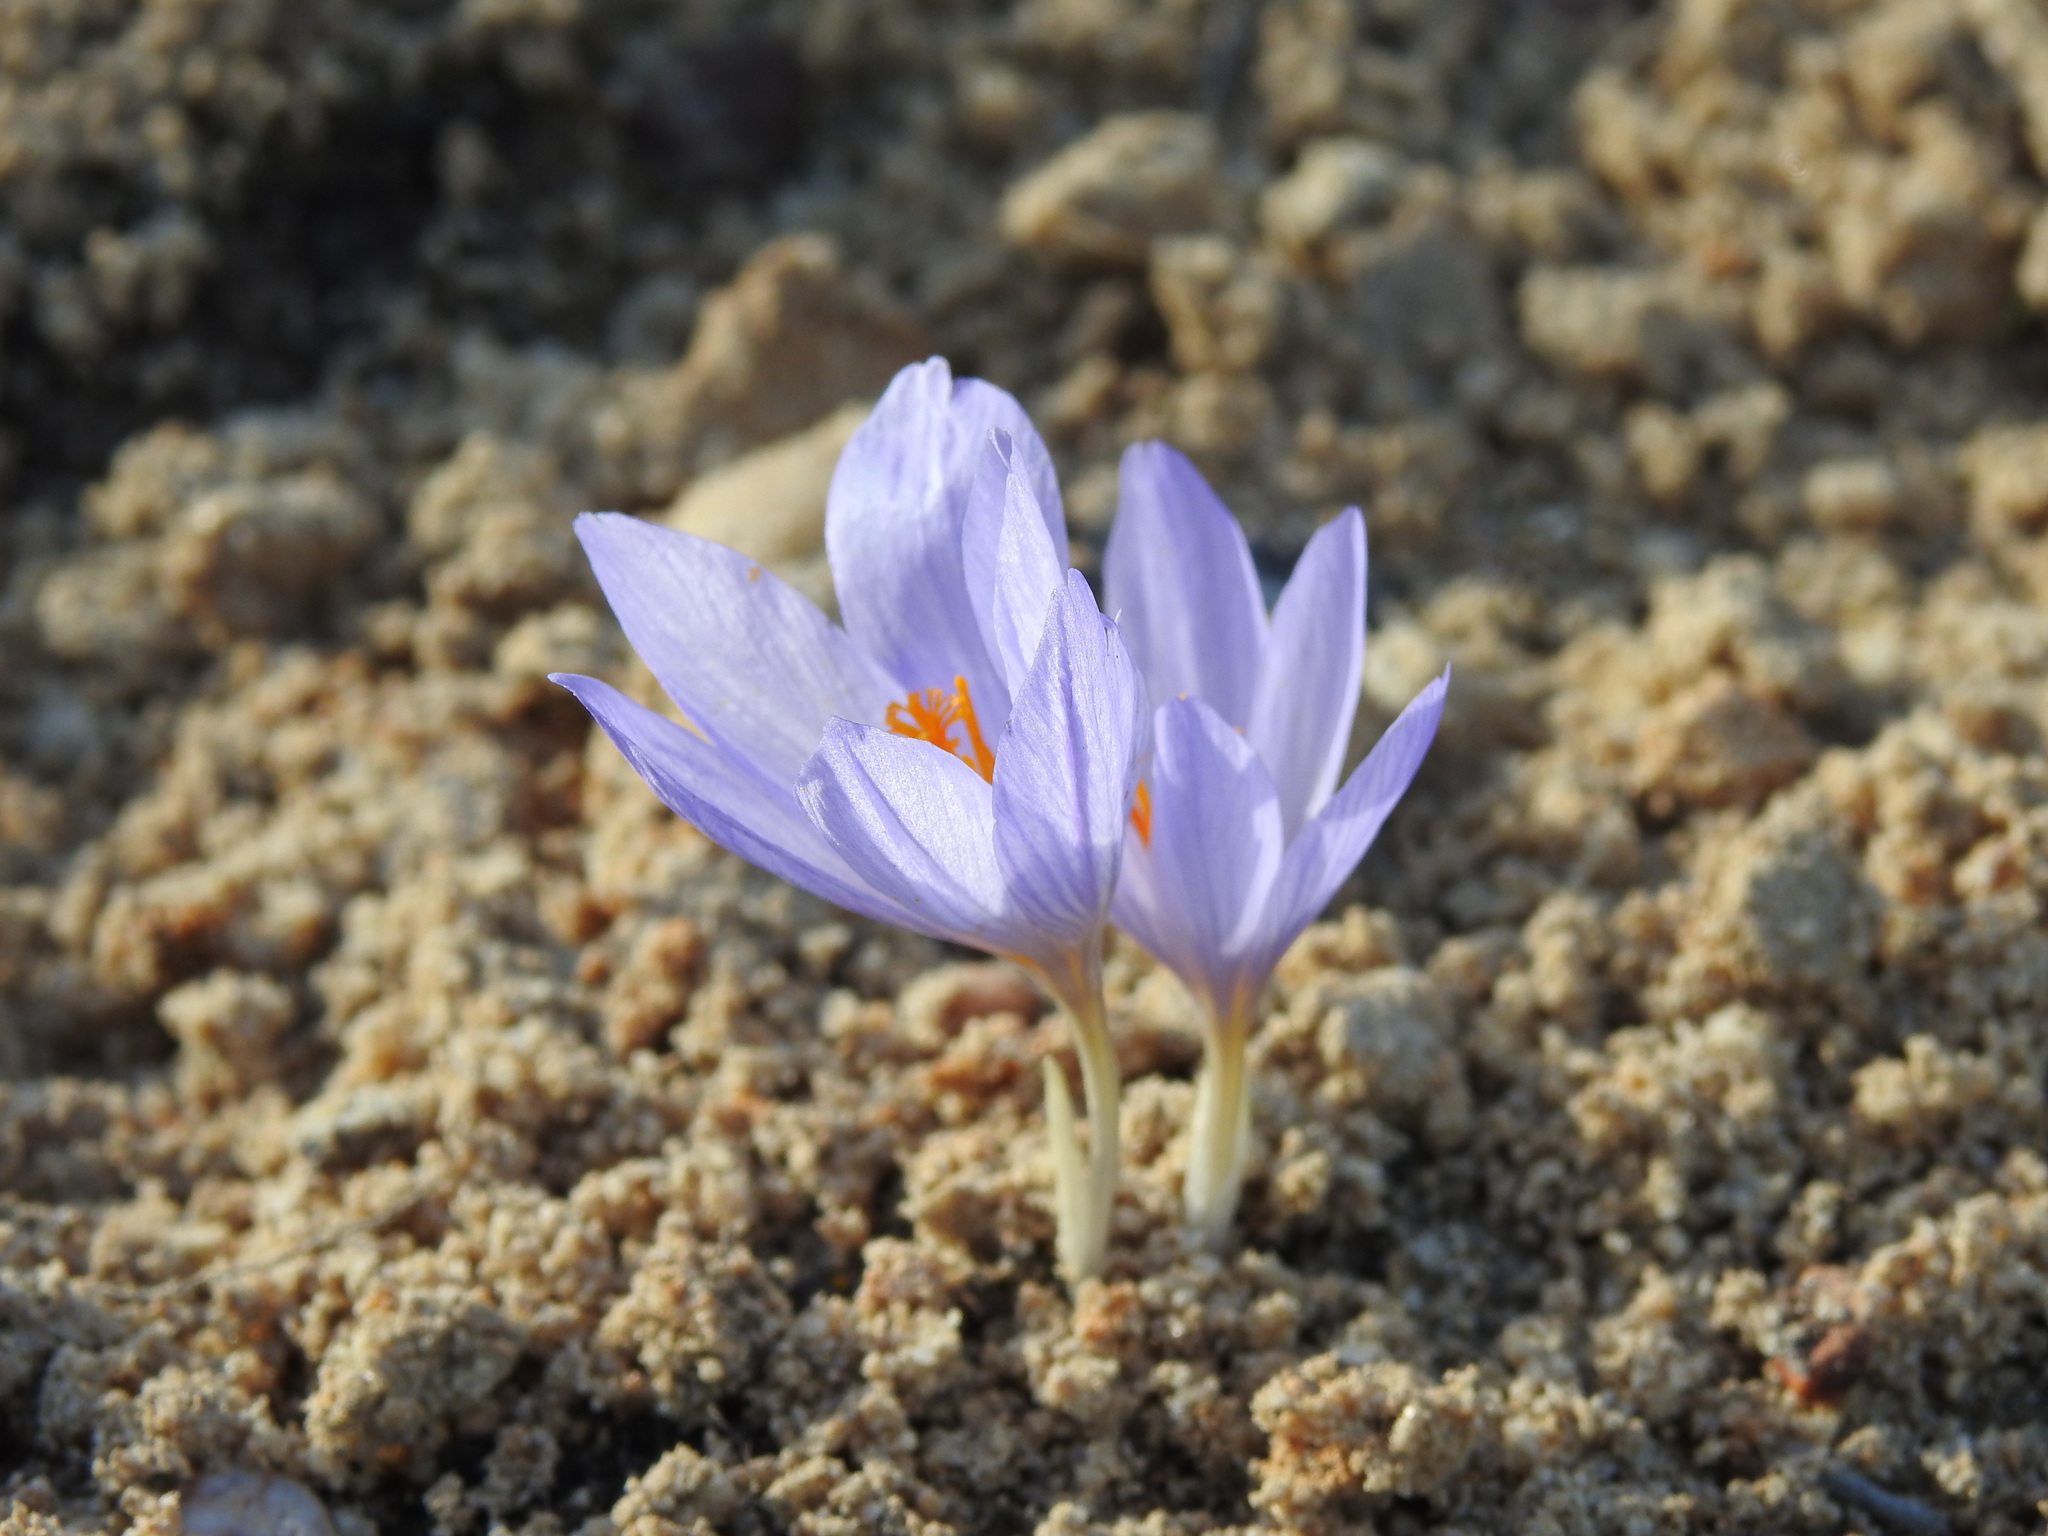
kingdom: Plantae
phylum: Tracheophyta
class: Liliopsida
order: Asparagales
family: Iridaceae
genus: Crocus
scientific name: Crocus serotinus
